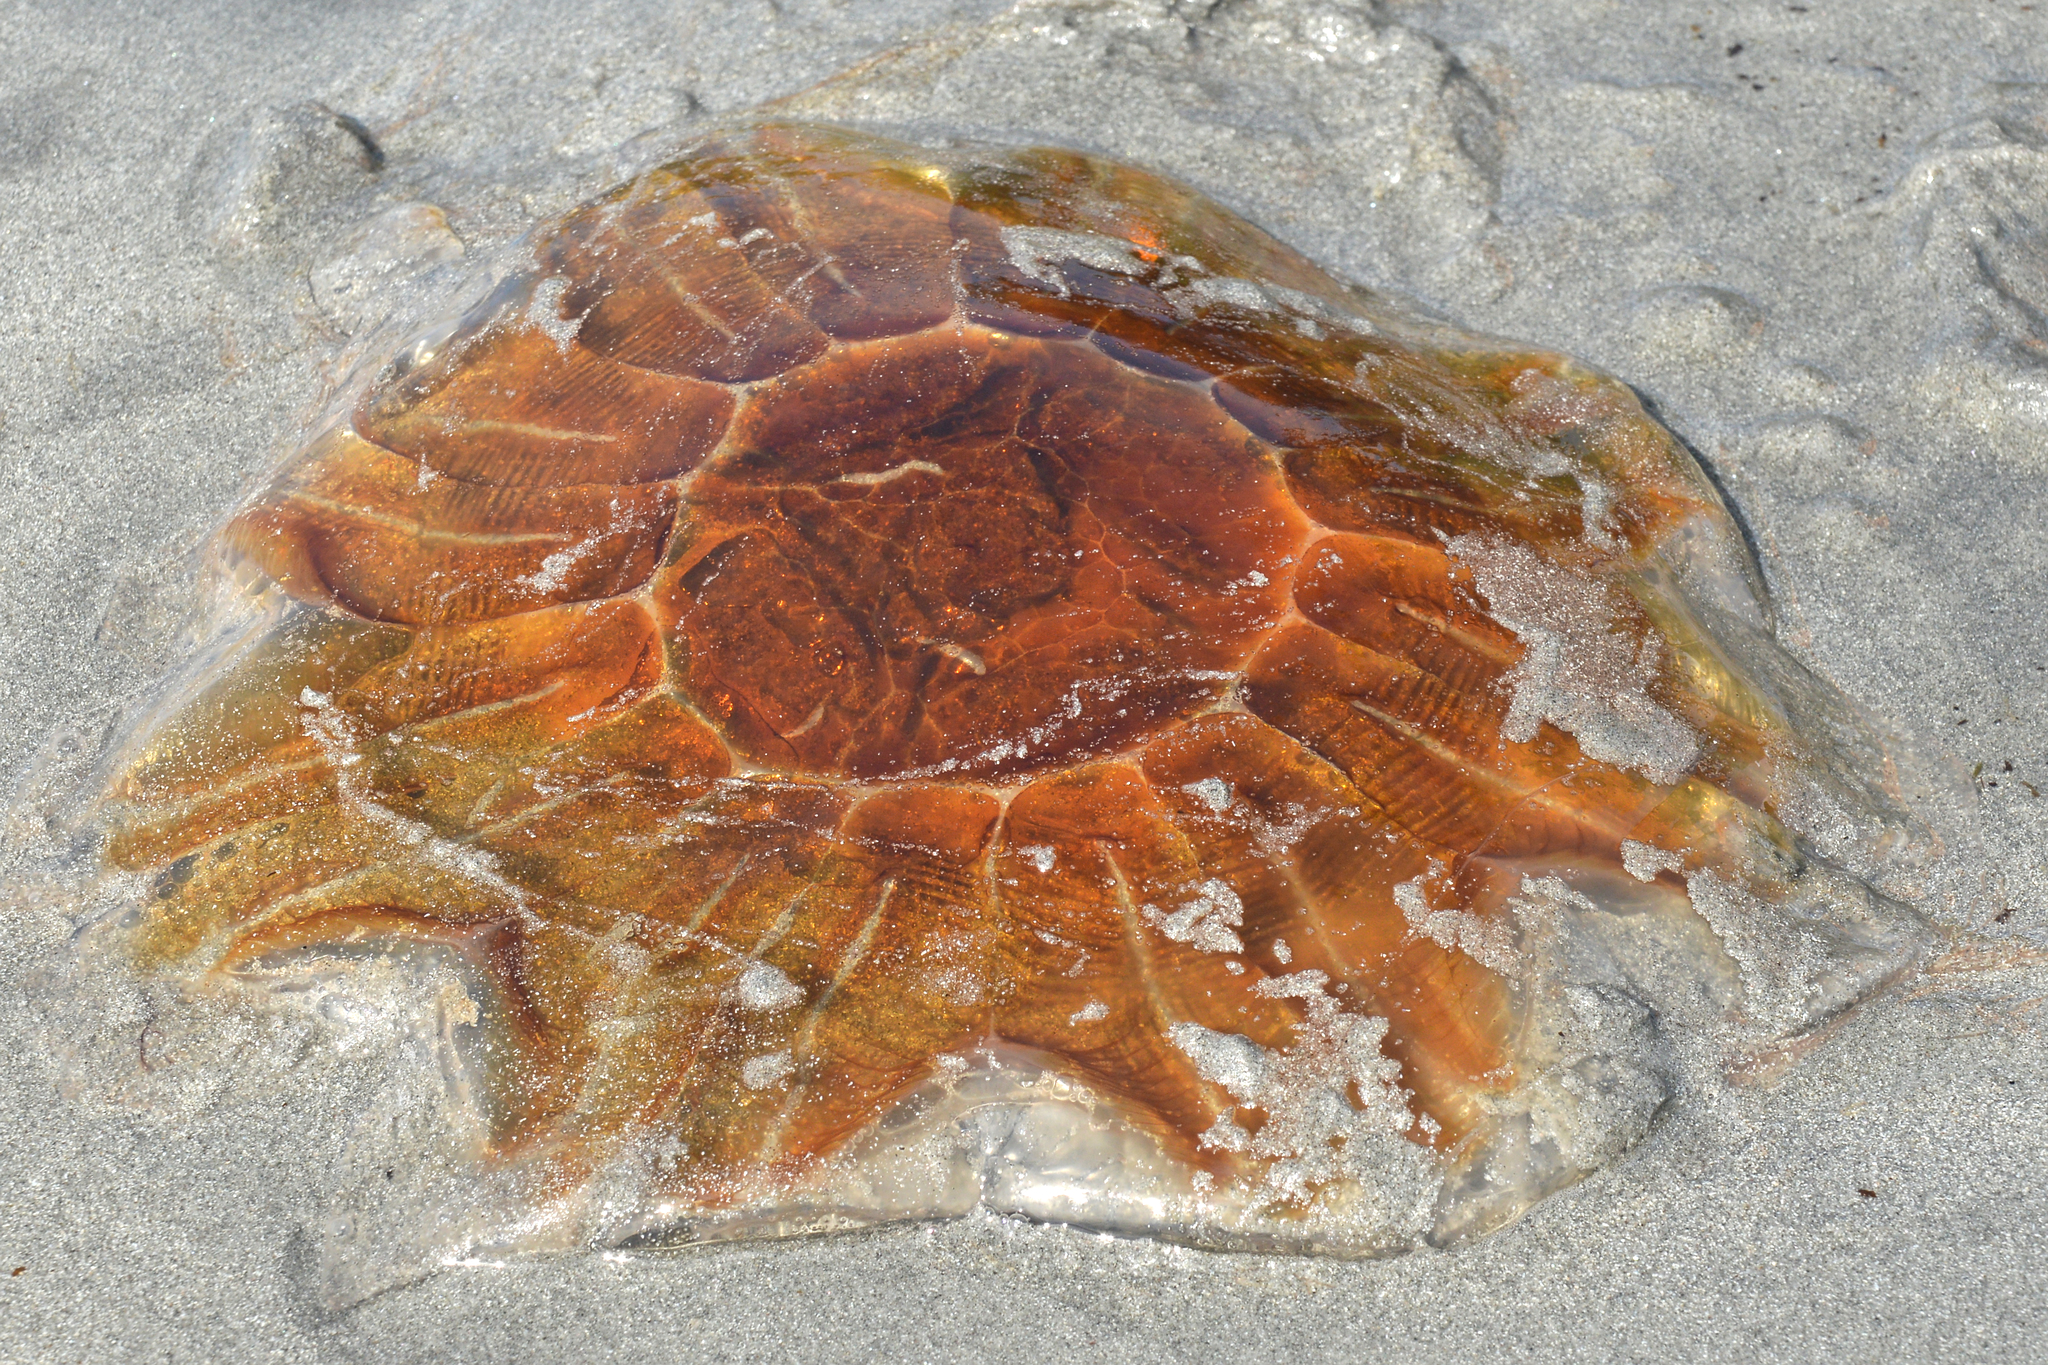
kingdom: Animalia
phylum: Cnidaria
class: Scyphozoa
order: Semaeostomeae
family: Cyaneidae
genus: Cyanea
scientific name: Cyanea capillata
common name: Lion's mane jellyfish
